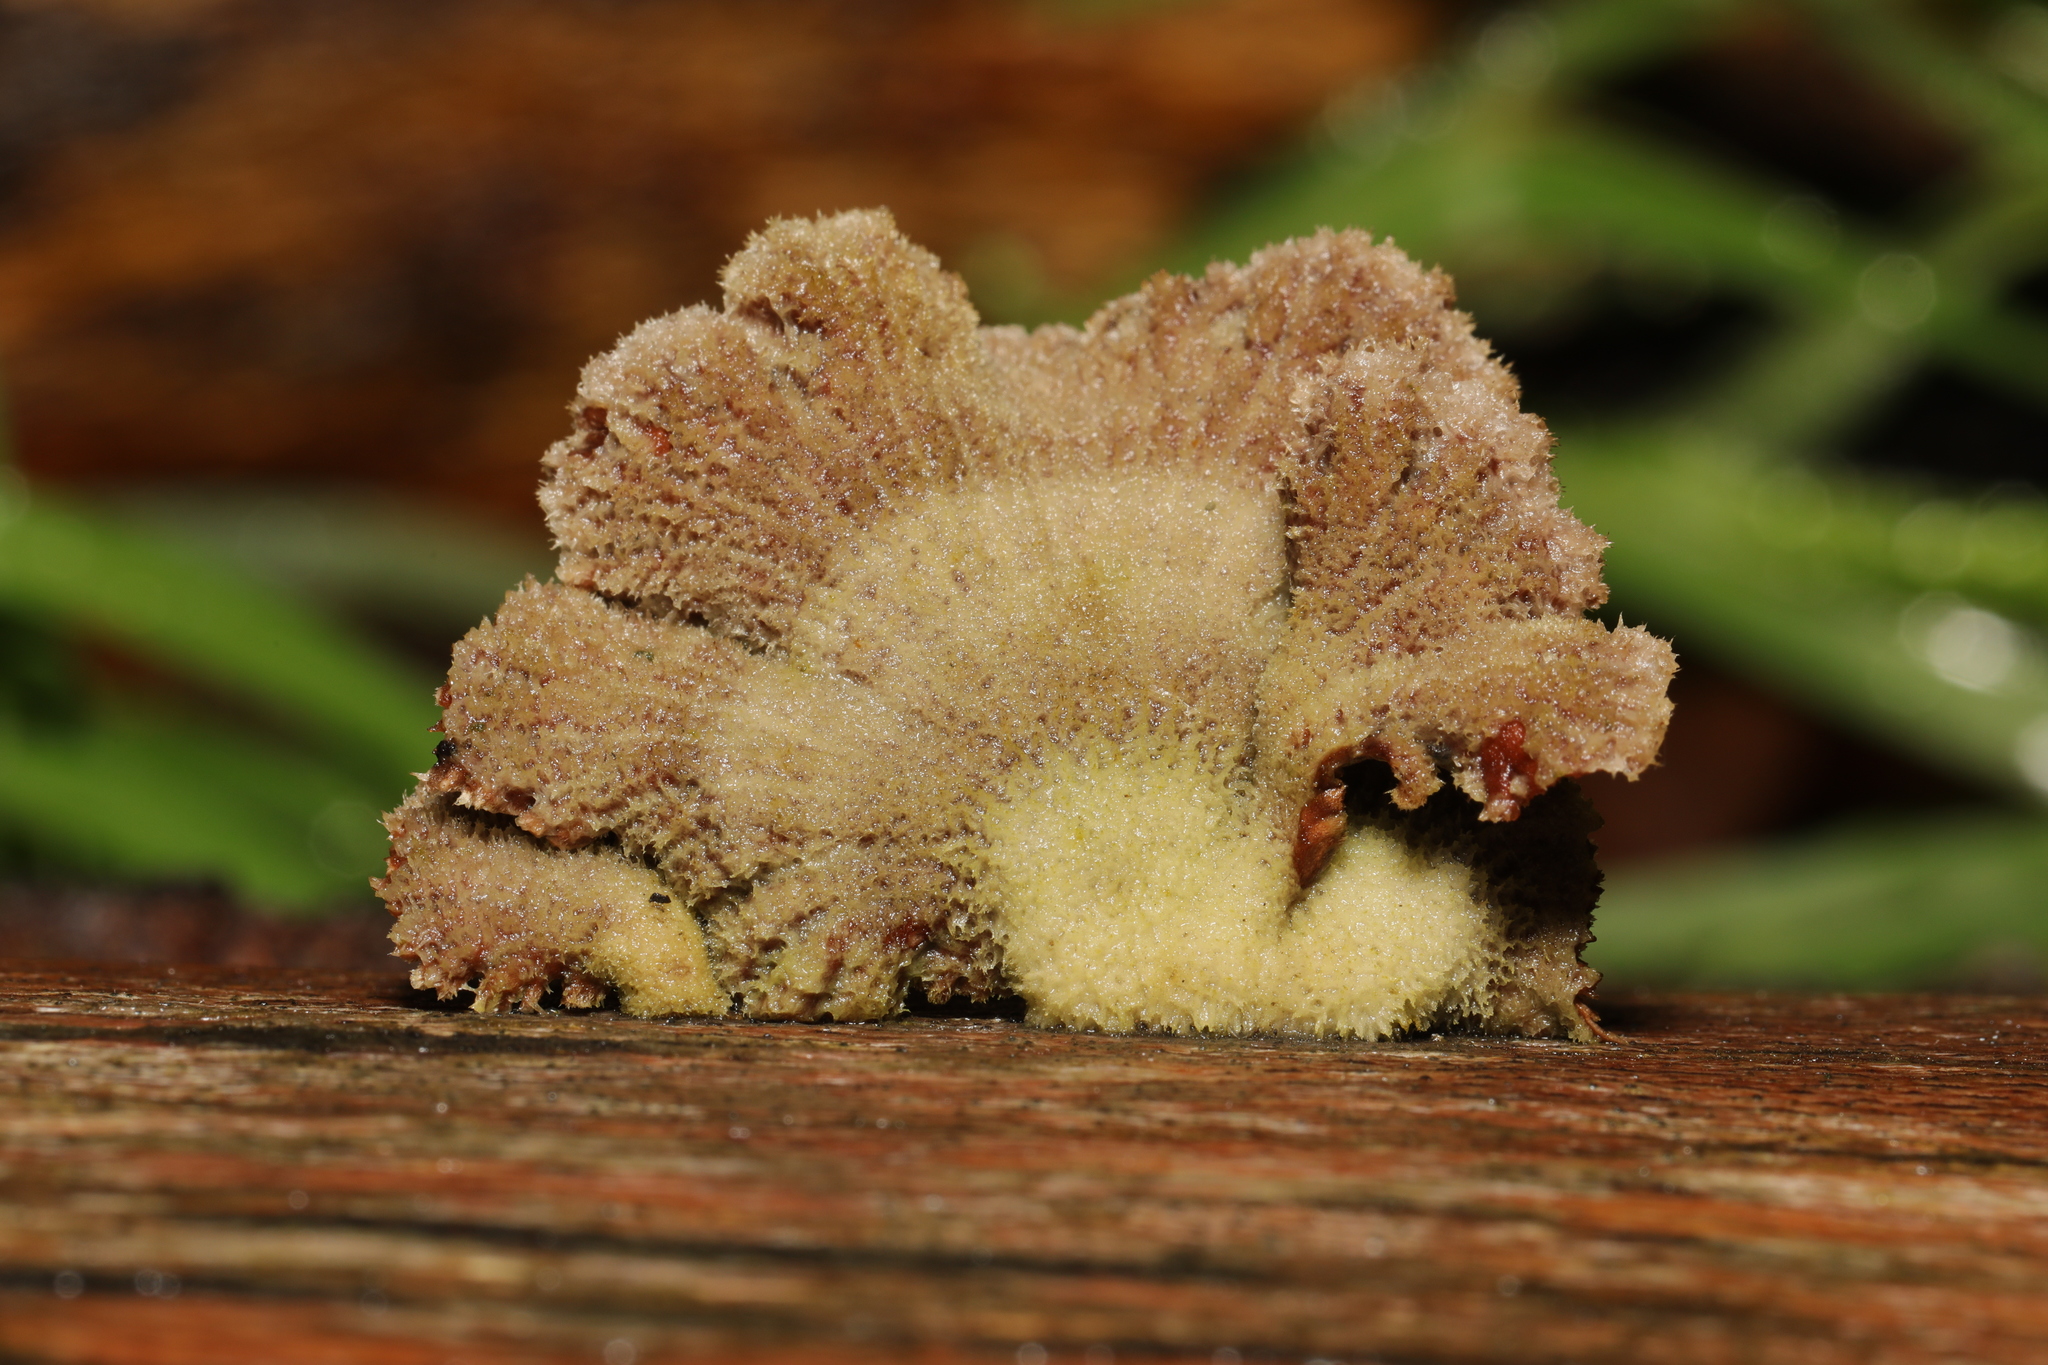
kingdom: Fungi
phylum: Basidiomycota
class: Agaricomycetes
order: Agaricales
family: Schizophyllaceae
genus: Schizophyllum
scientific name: Schizophyllum commune
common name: Common porecrust
